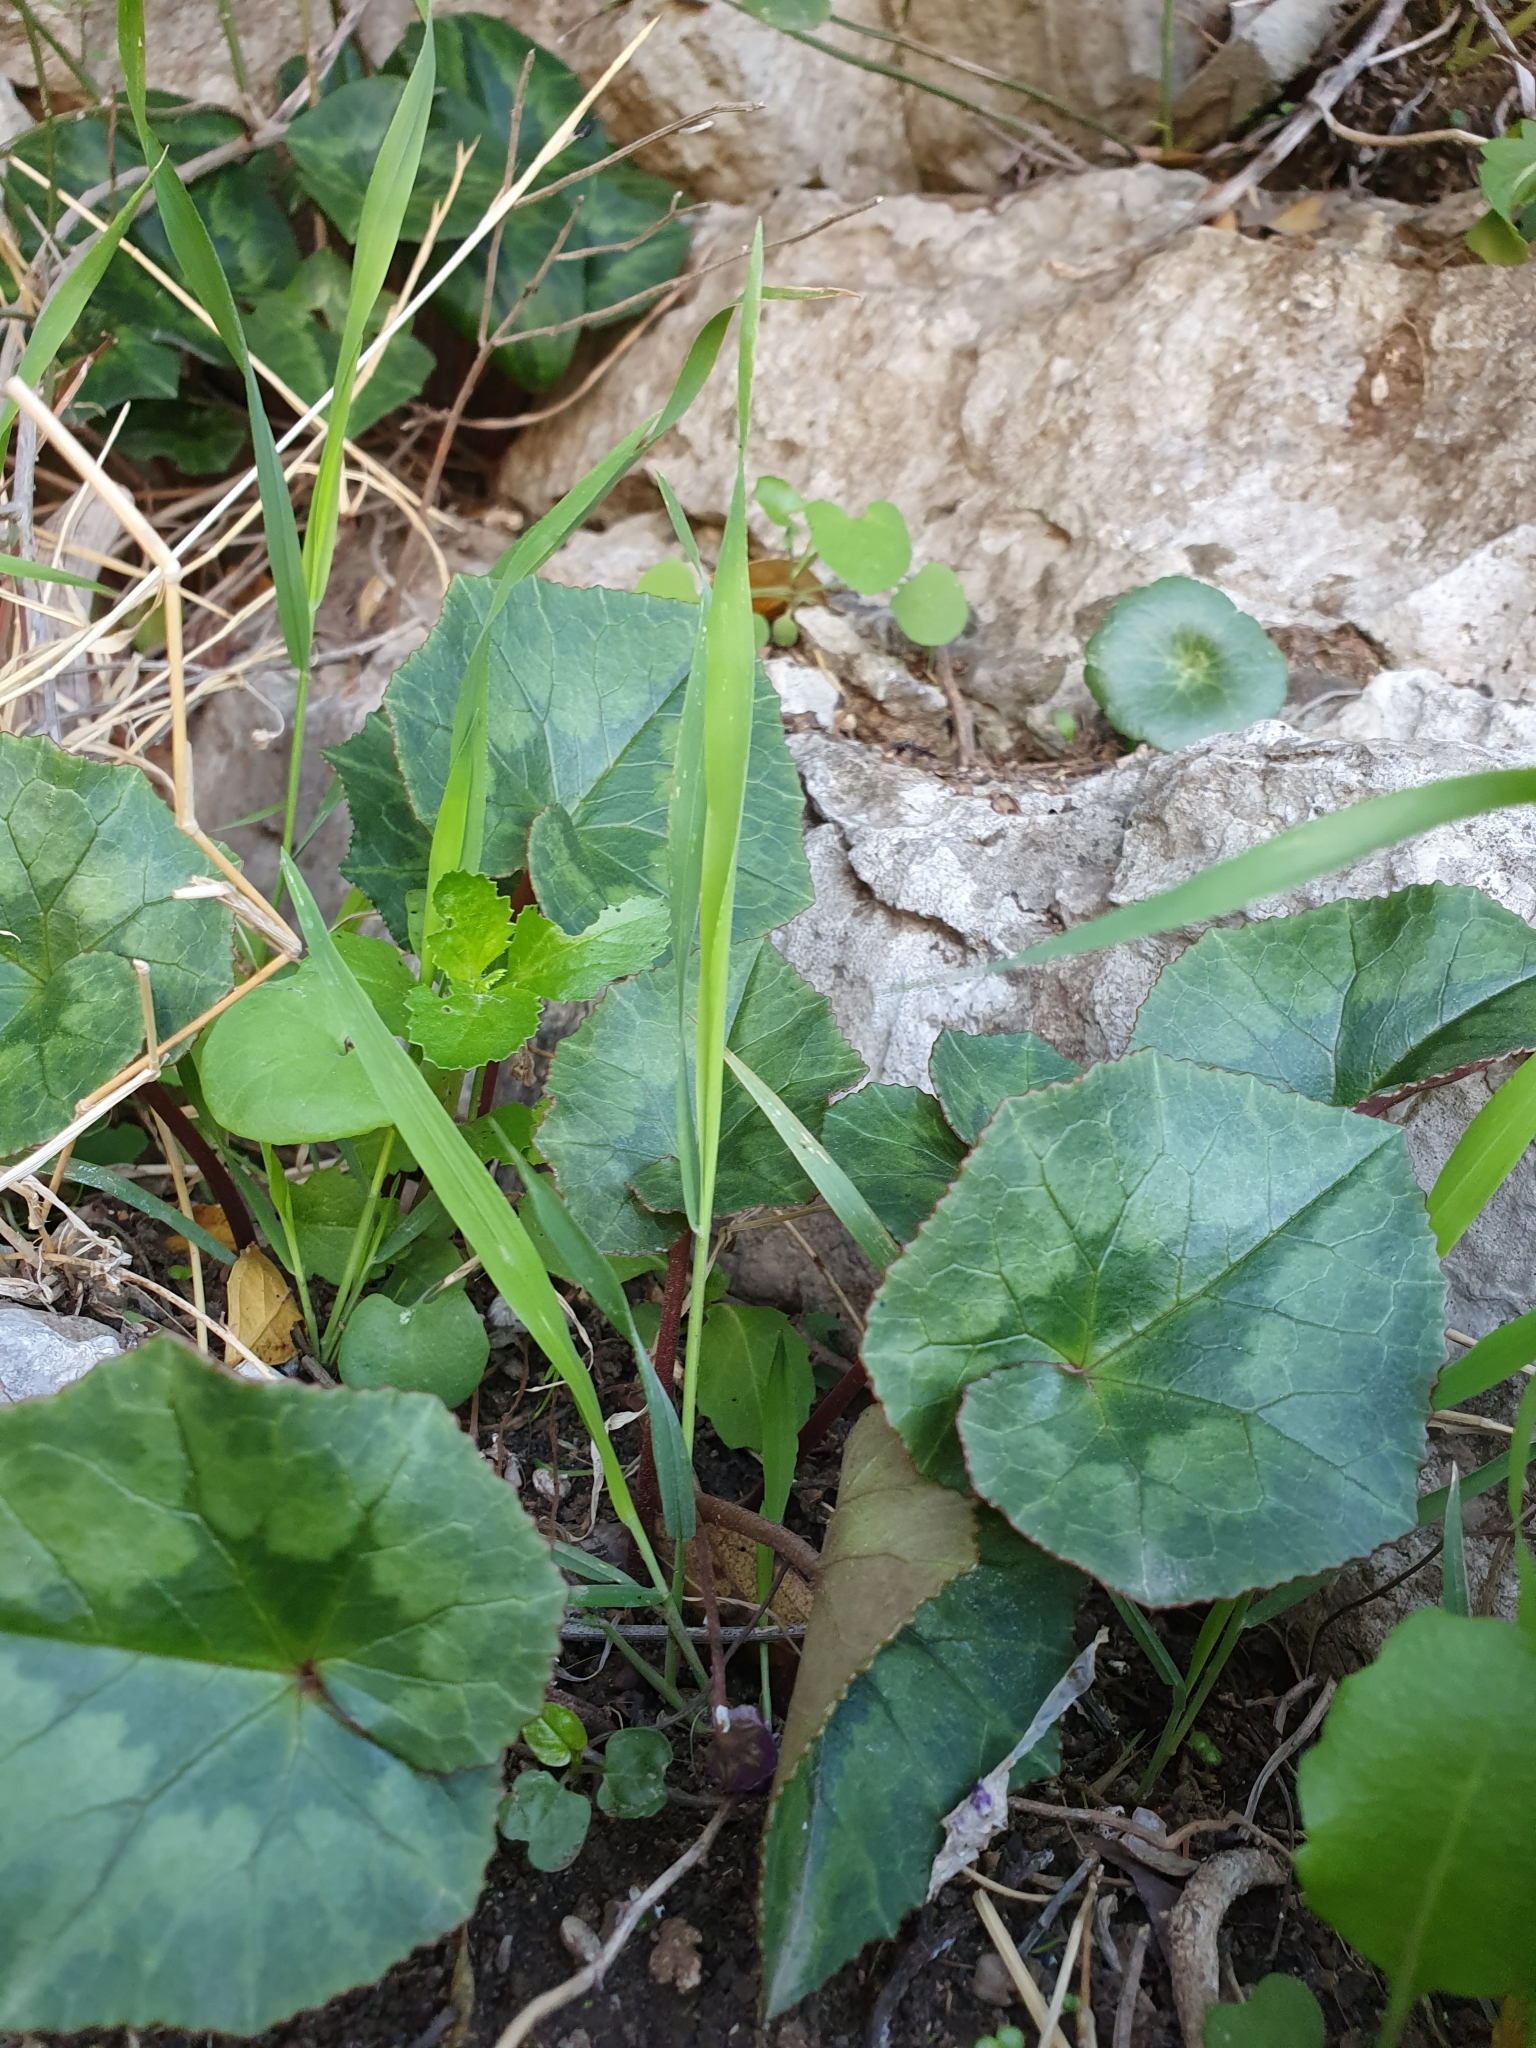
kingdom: Plantae
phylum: Tracheophyta
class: Magnoliopsida
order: Ericales
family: Primulaceae
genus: Cyclamen
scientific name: Cyclamen africanum
